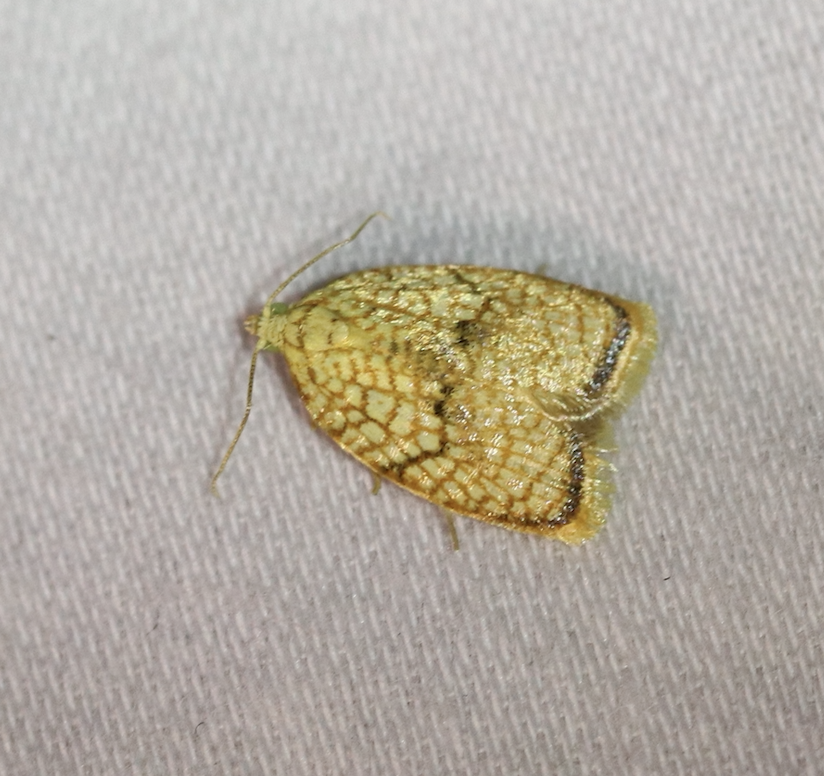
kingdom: Animalia
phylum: Arthropoda
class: Insecta
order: Lepidoptera
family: Tortricidae
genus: Acleris
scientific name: Acleris forsskaleana
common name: Maple button
